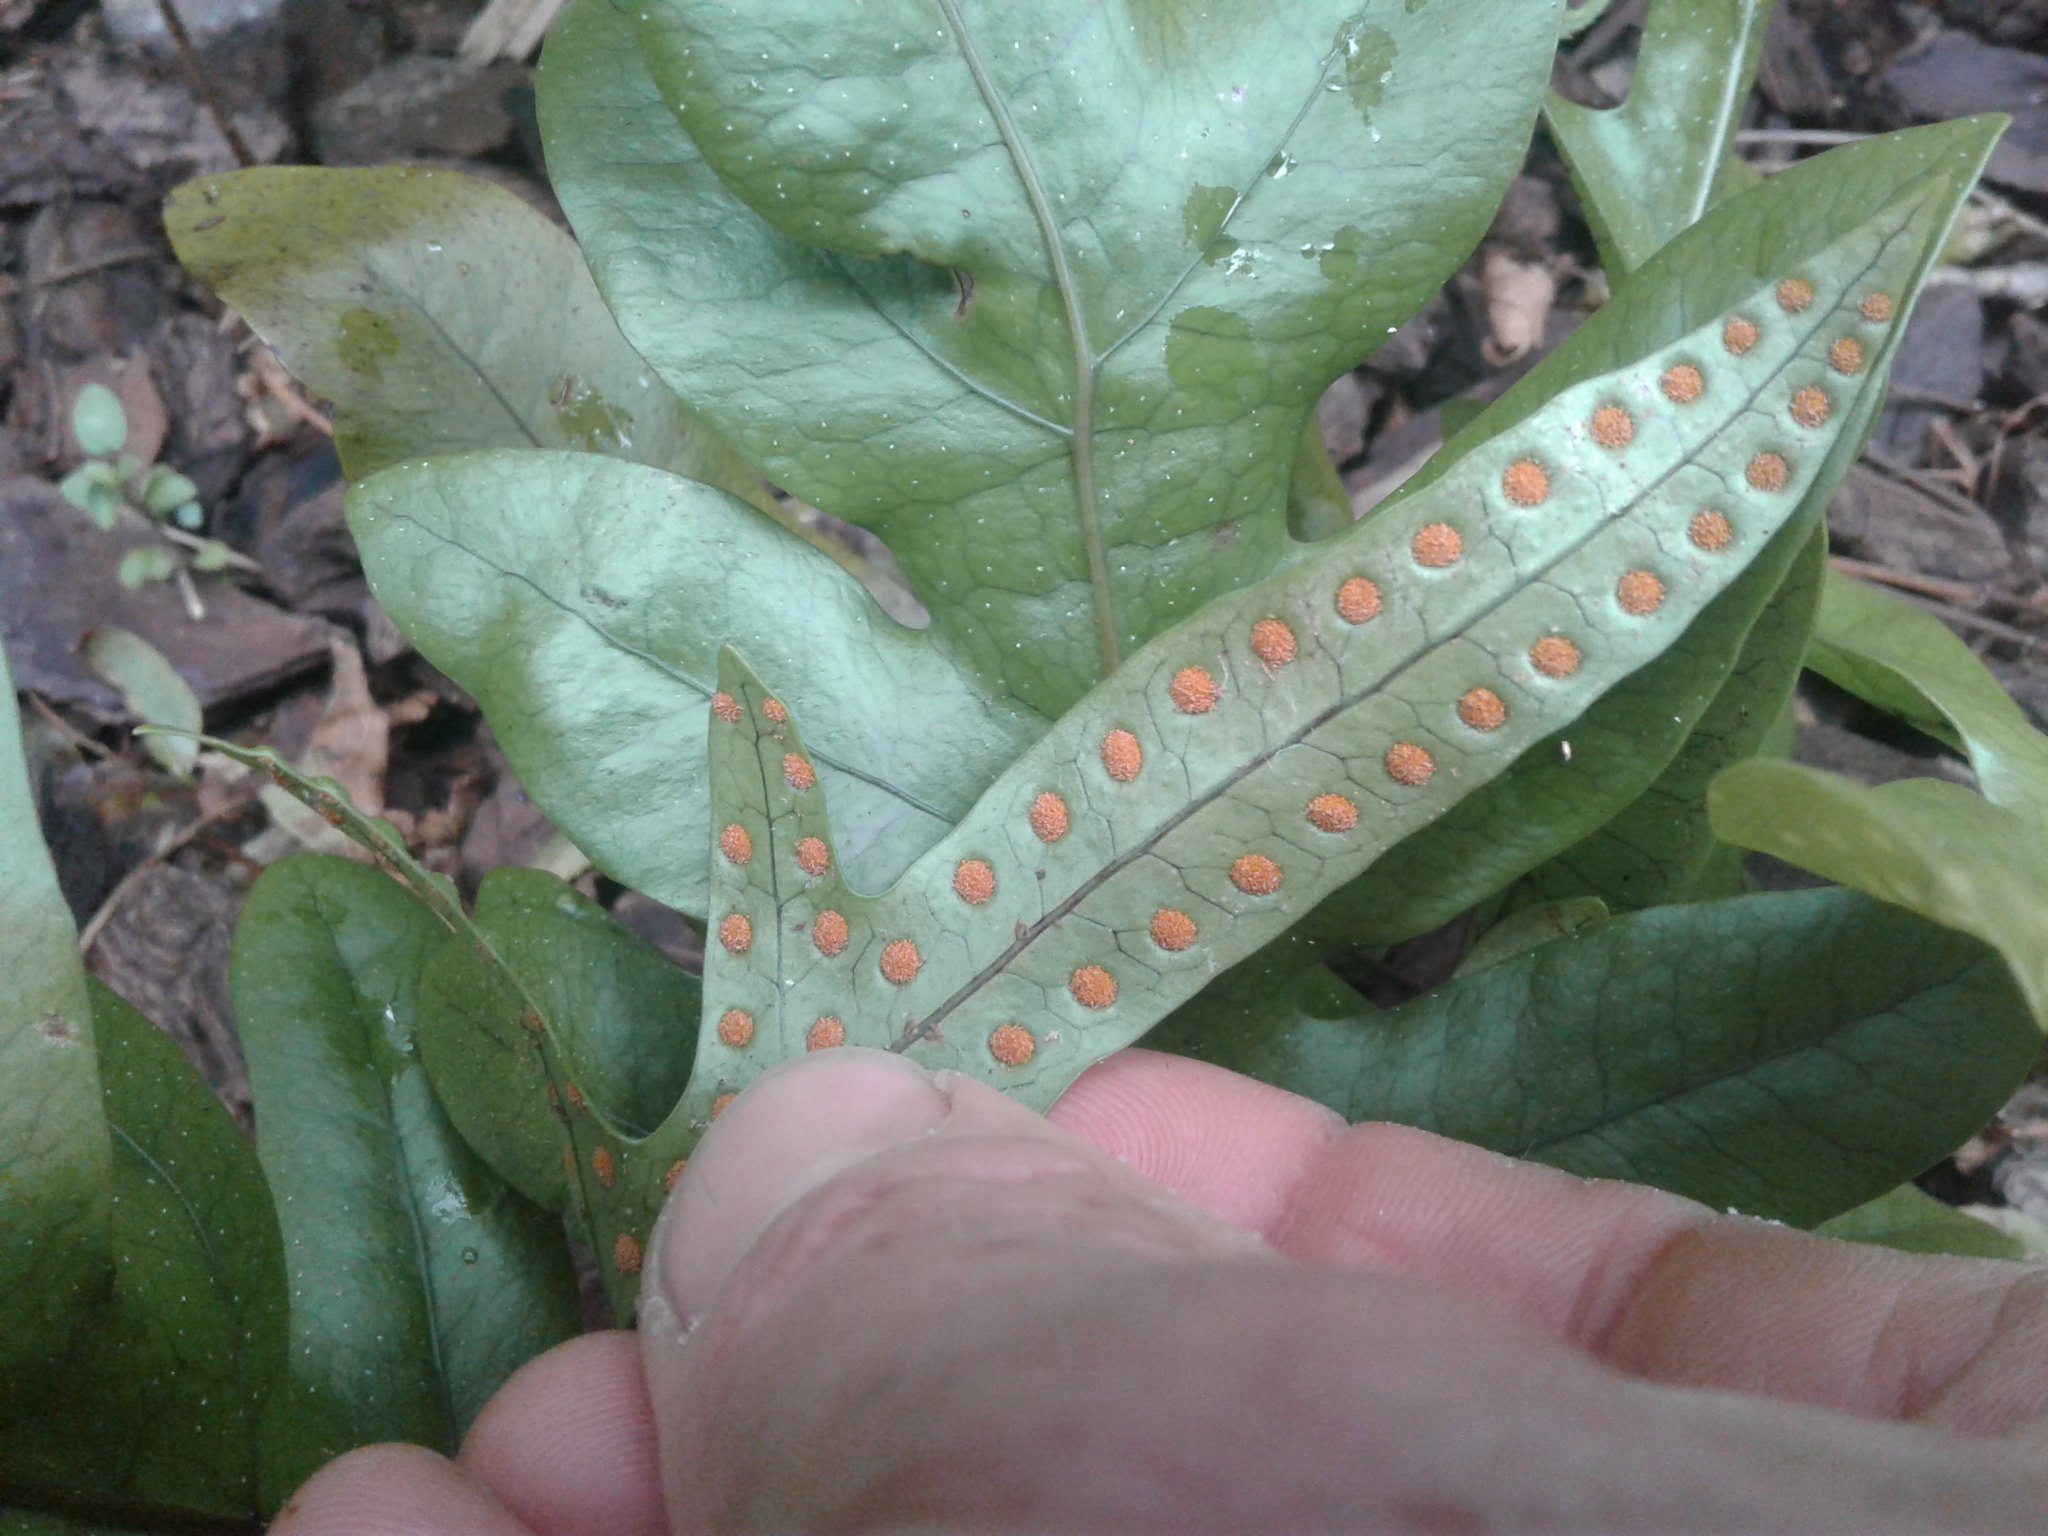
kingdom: Plantae
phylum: Tracheophyta
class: Polypodiopsida
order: Polypodiales
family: Polypodiaceae
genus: Lecanopteris
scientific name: Lecanopteris pustulata
